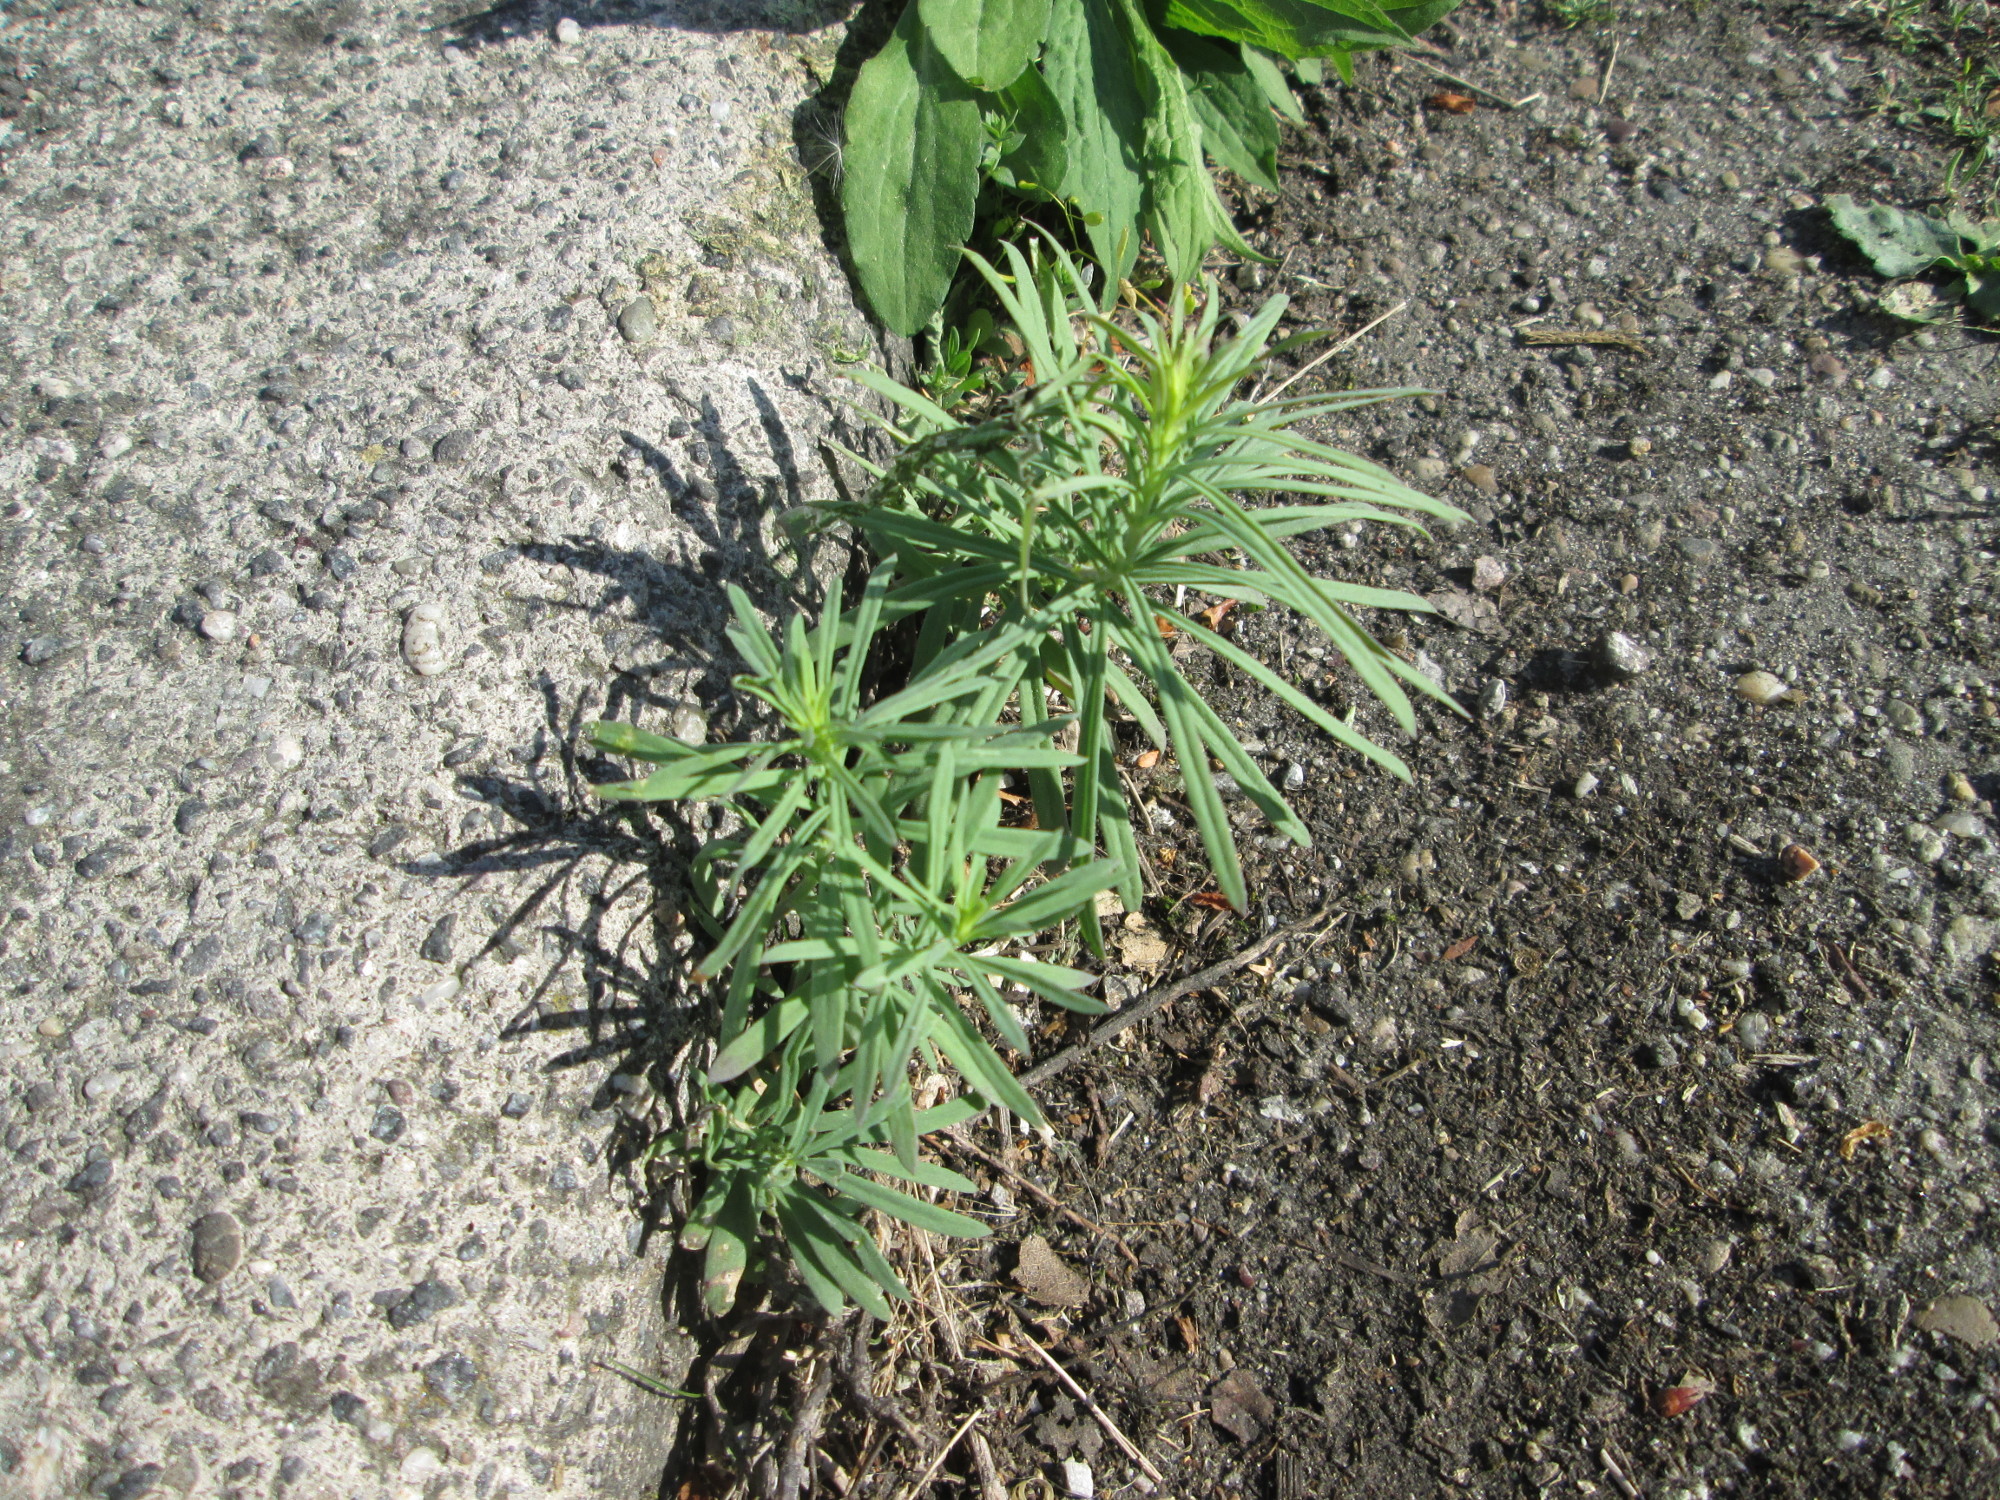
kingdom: Plantae
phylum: Tracheophyta
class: Magnoliopsida
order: Lamiales
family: Plantaginaceae
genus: Linaria
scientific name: Linaria vulgaris
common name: Butter and eggs
